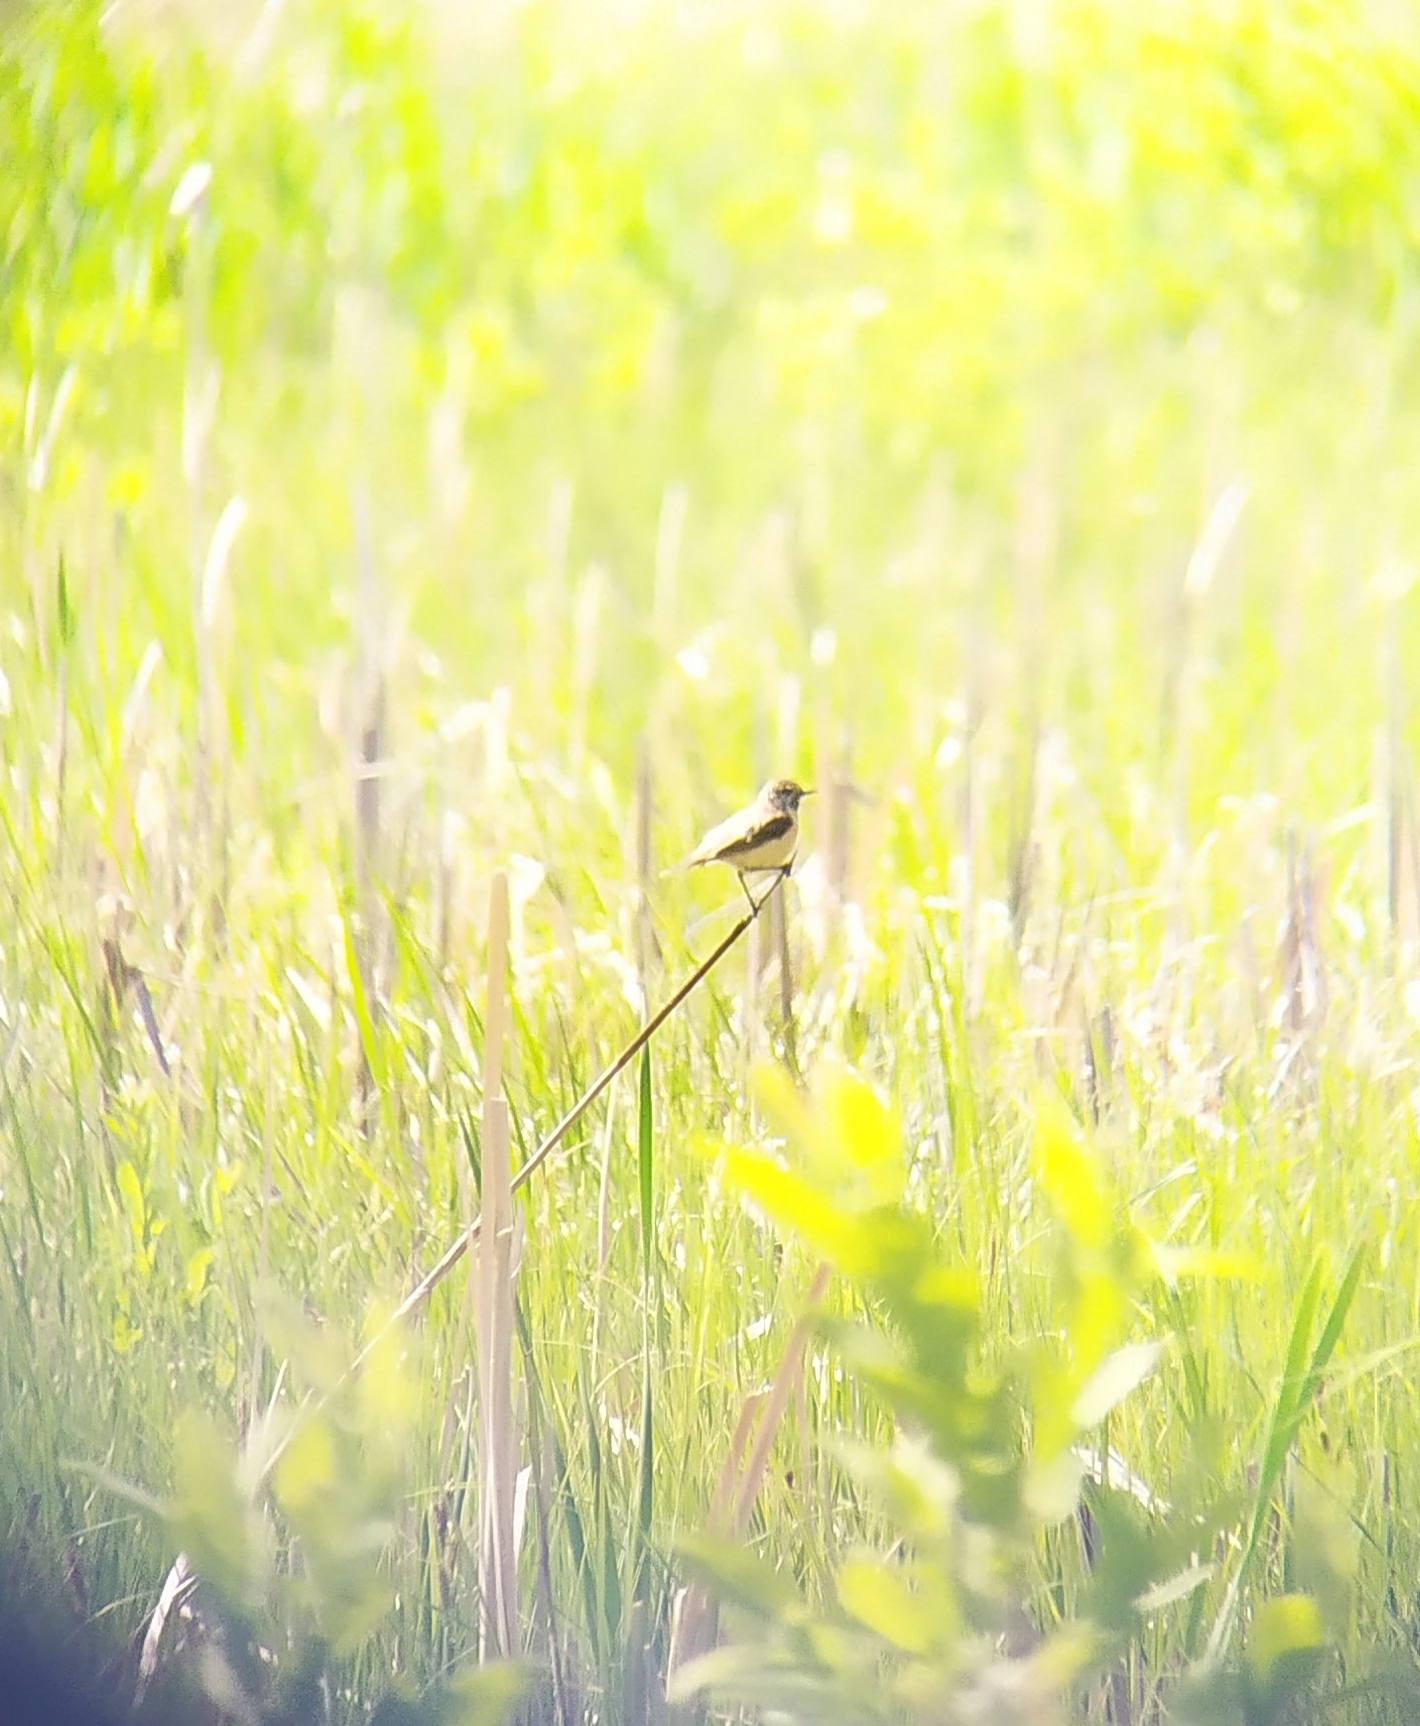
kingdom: Animalia
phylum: Chordata
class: Aves
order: Passeriformes
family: Muscicapidae
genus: Saxicola
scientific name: Saxicola maurus
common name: Siberian stonechat
